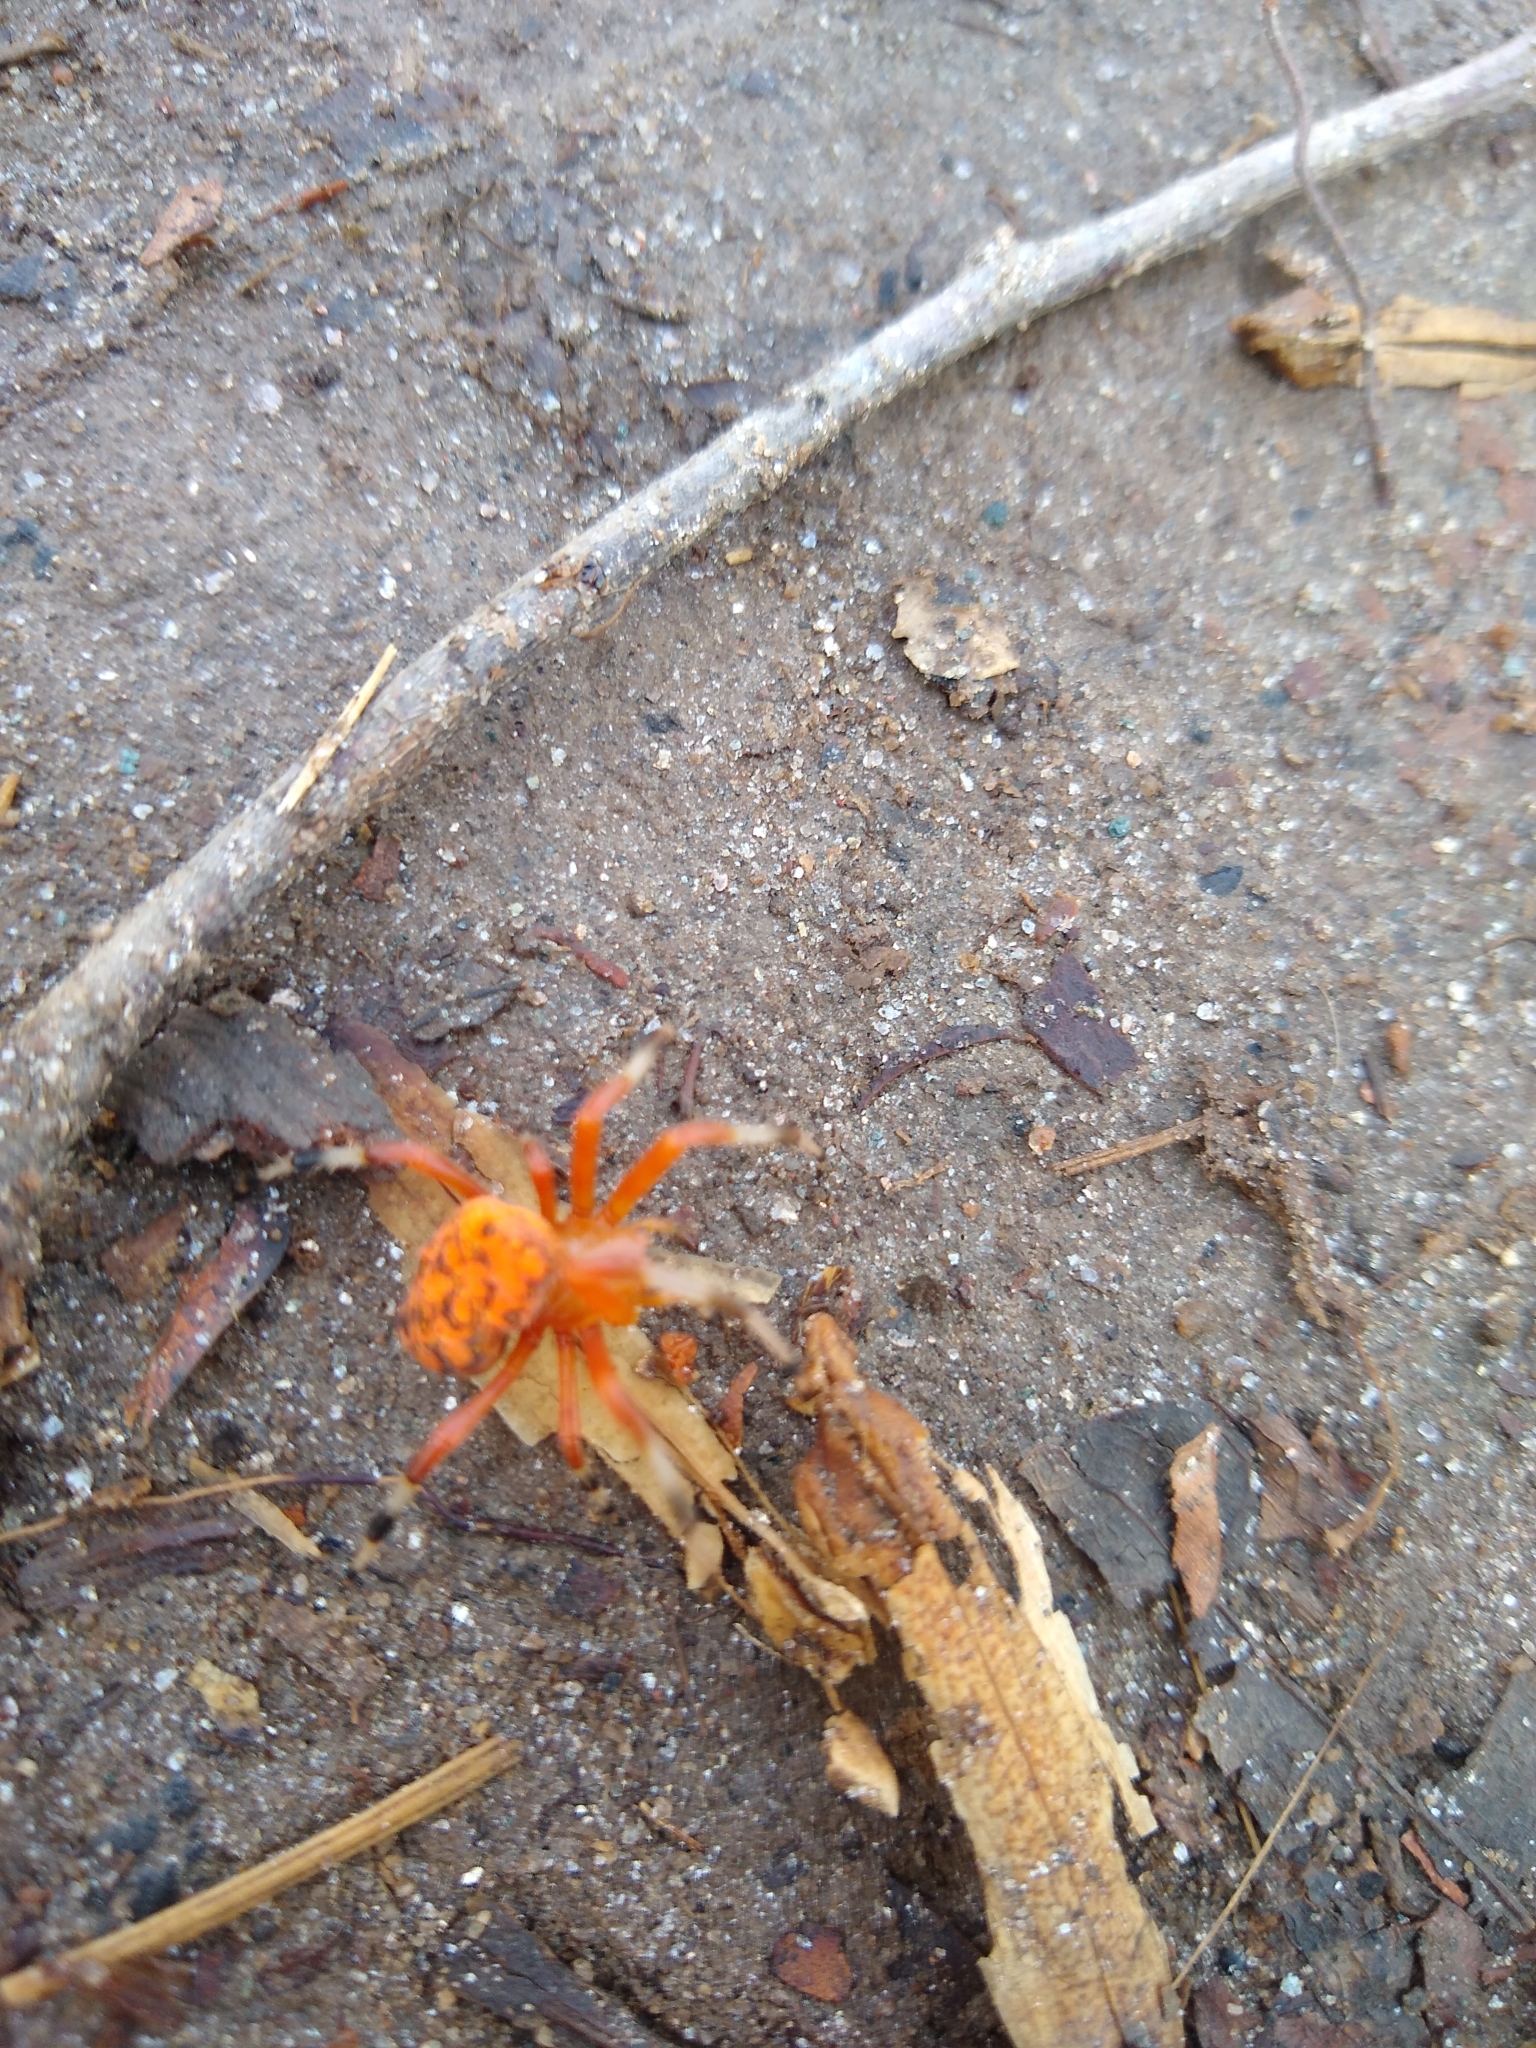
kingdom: Animalia
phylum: Arthropoda
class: Arachnida
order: Araneae
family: Araneidae
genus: Araneus
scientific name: Araneus marmoreus
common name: Marbled orbweaver
